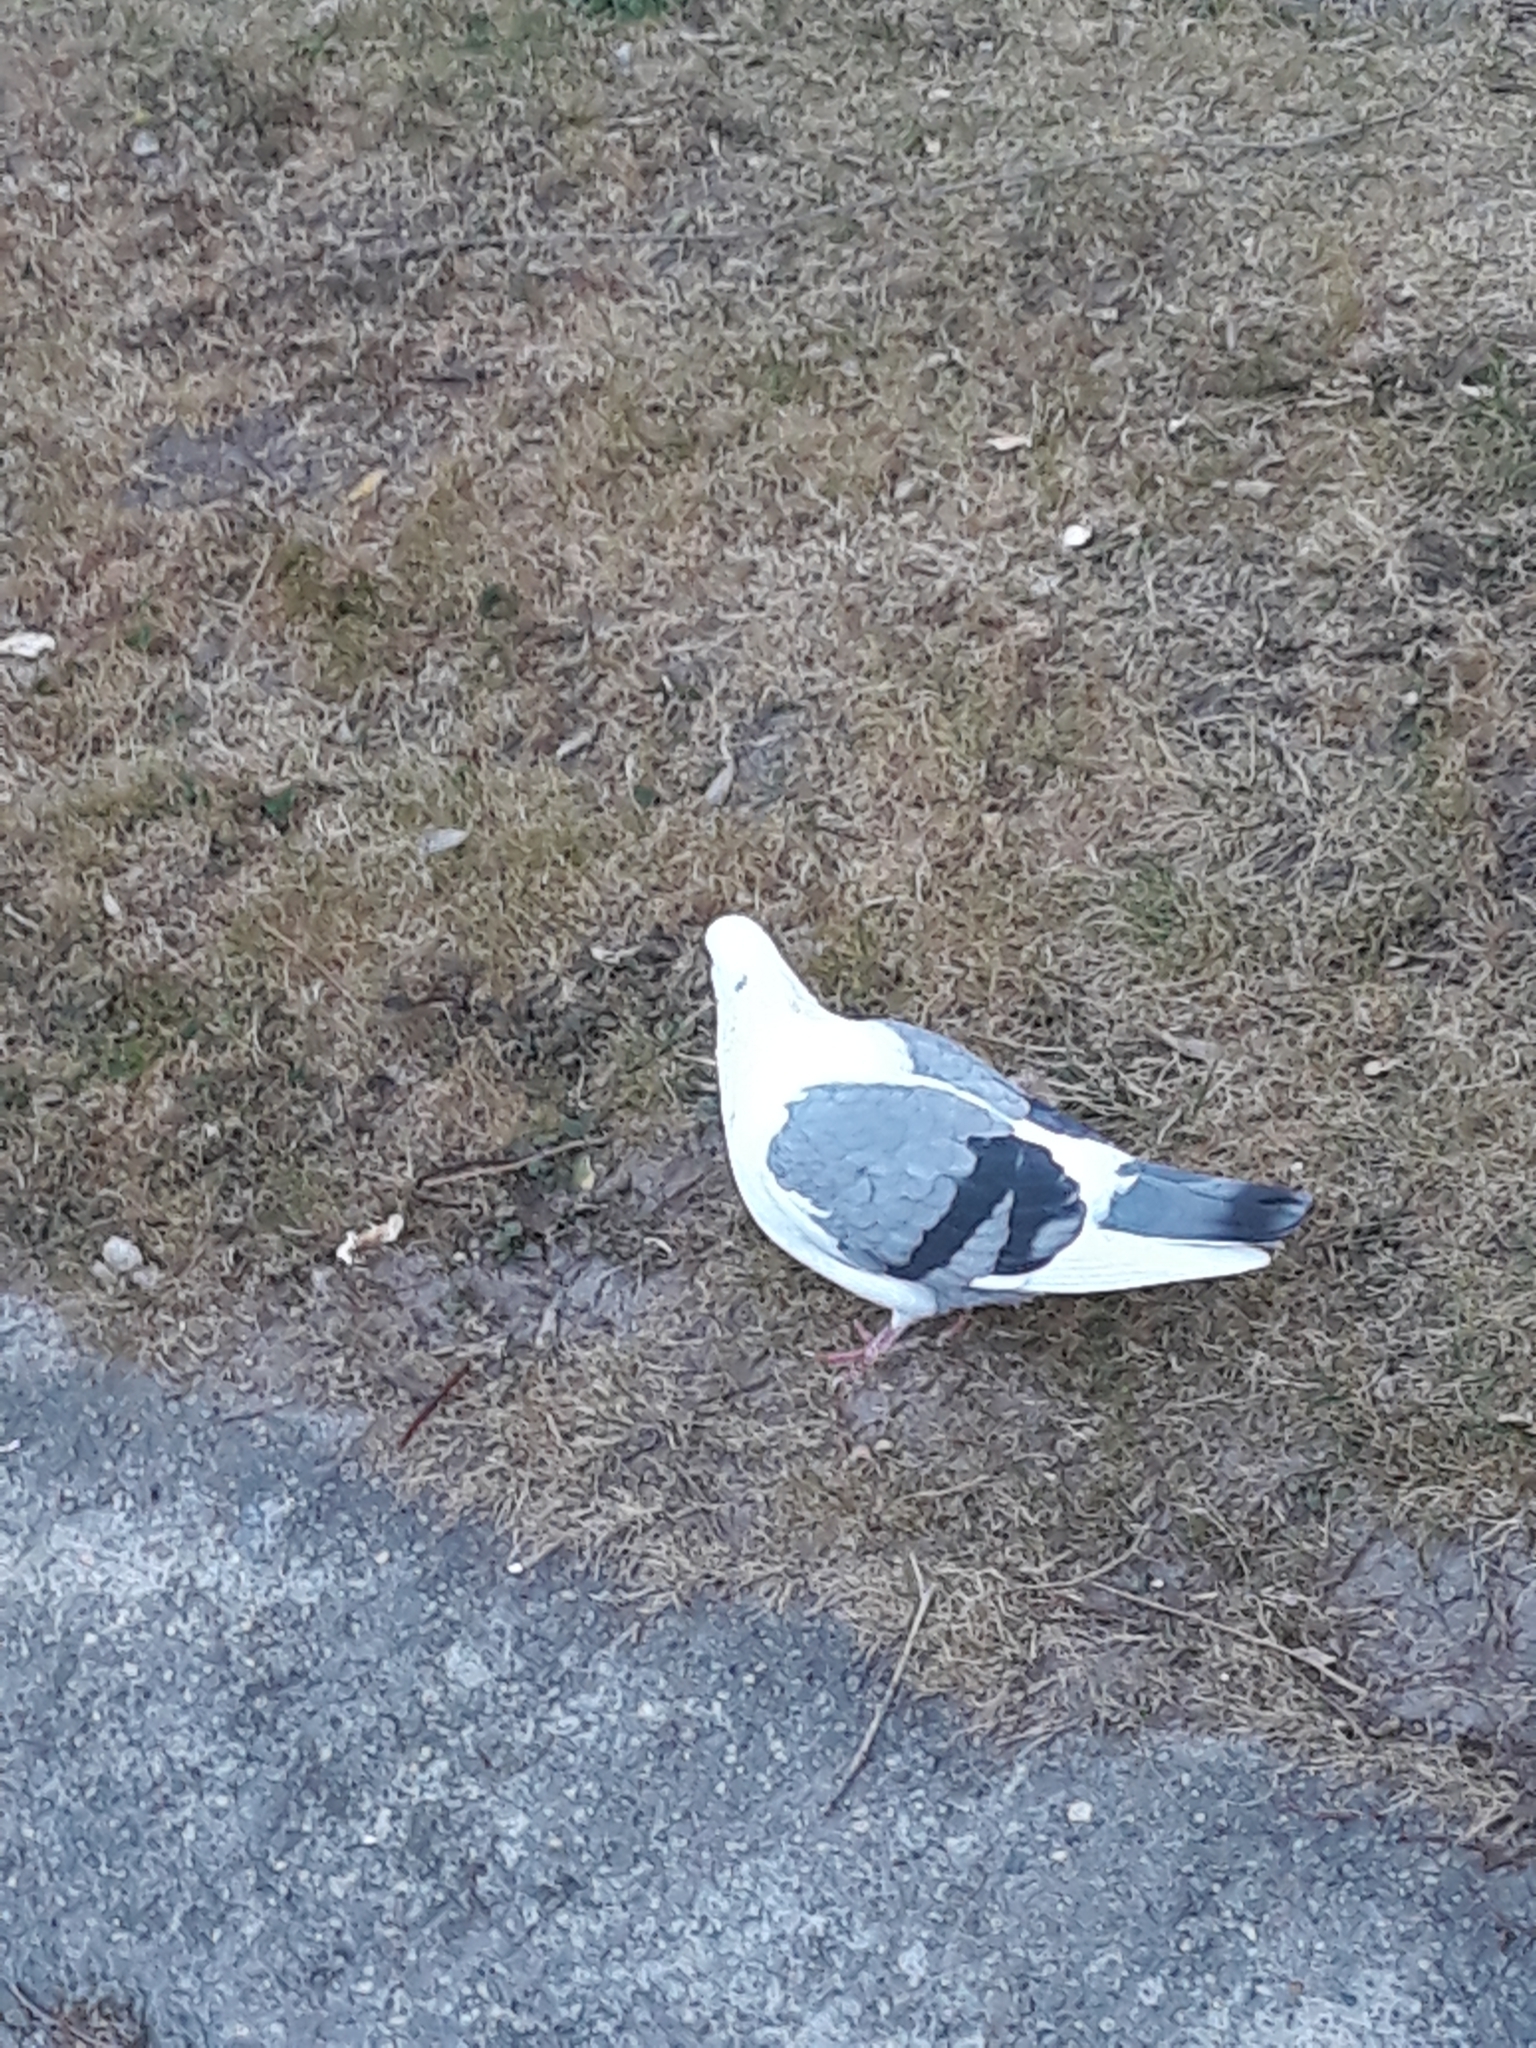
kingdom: Animalia
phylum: Chordata
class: Aves
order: Columbiformes
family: Columbidae
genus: Columba
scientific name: Columba livia
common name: Rock pigeon
